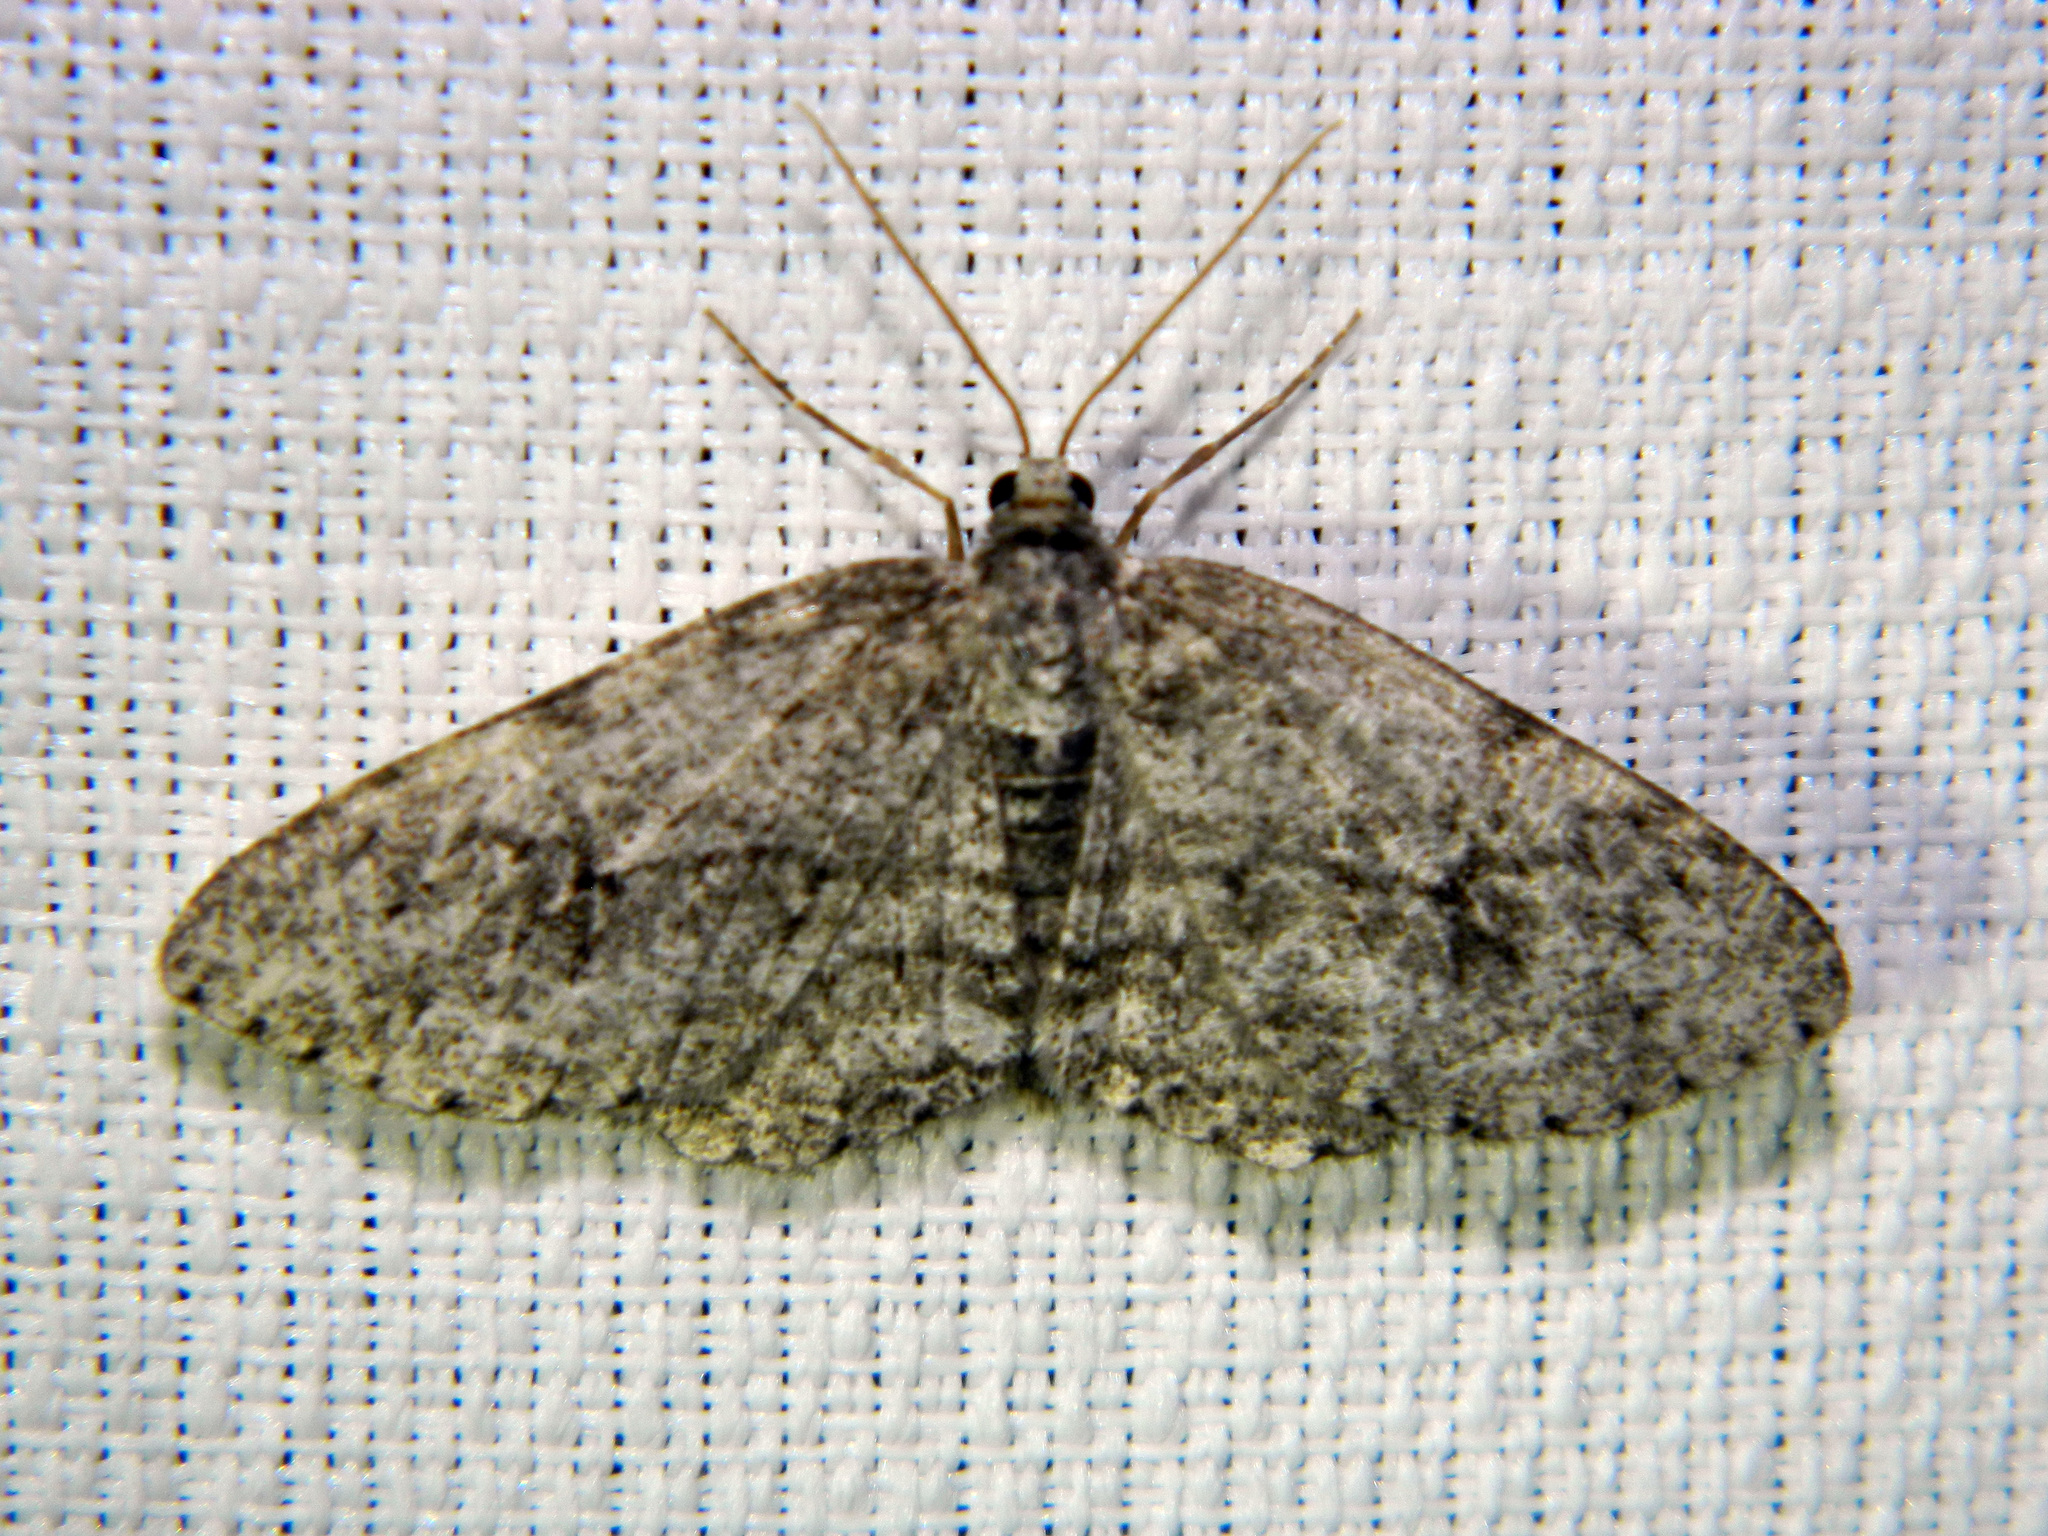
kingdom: Animalia
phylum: Arthropoda
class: Insecta
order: Lepidoptera
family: Geometridae
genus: Ectropis
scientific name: Ectropis crepuscularia
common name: Engrailed
